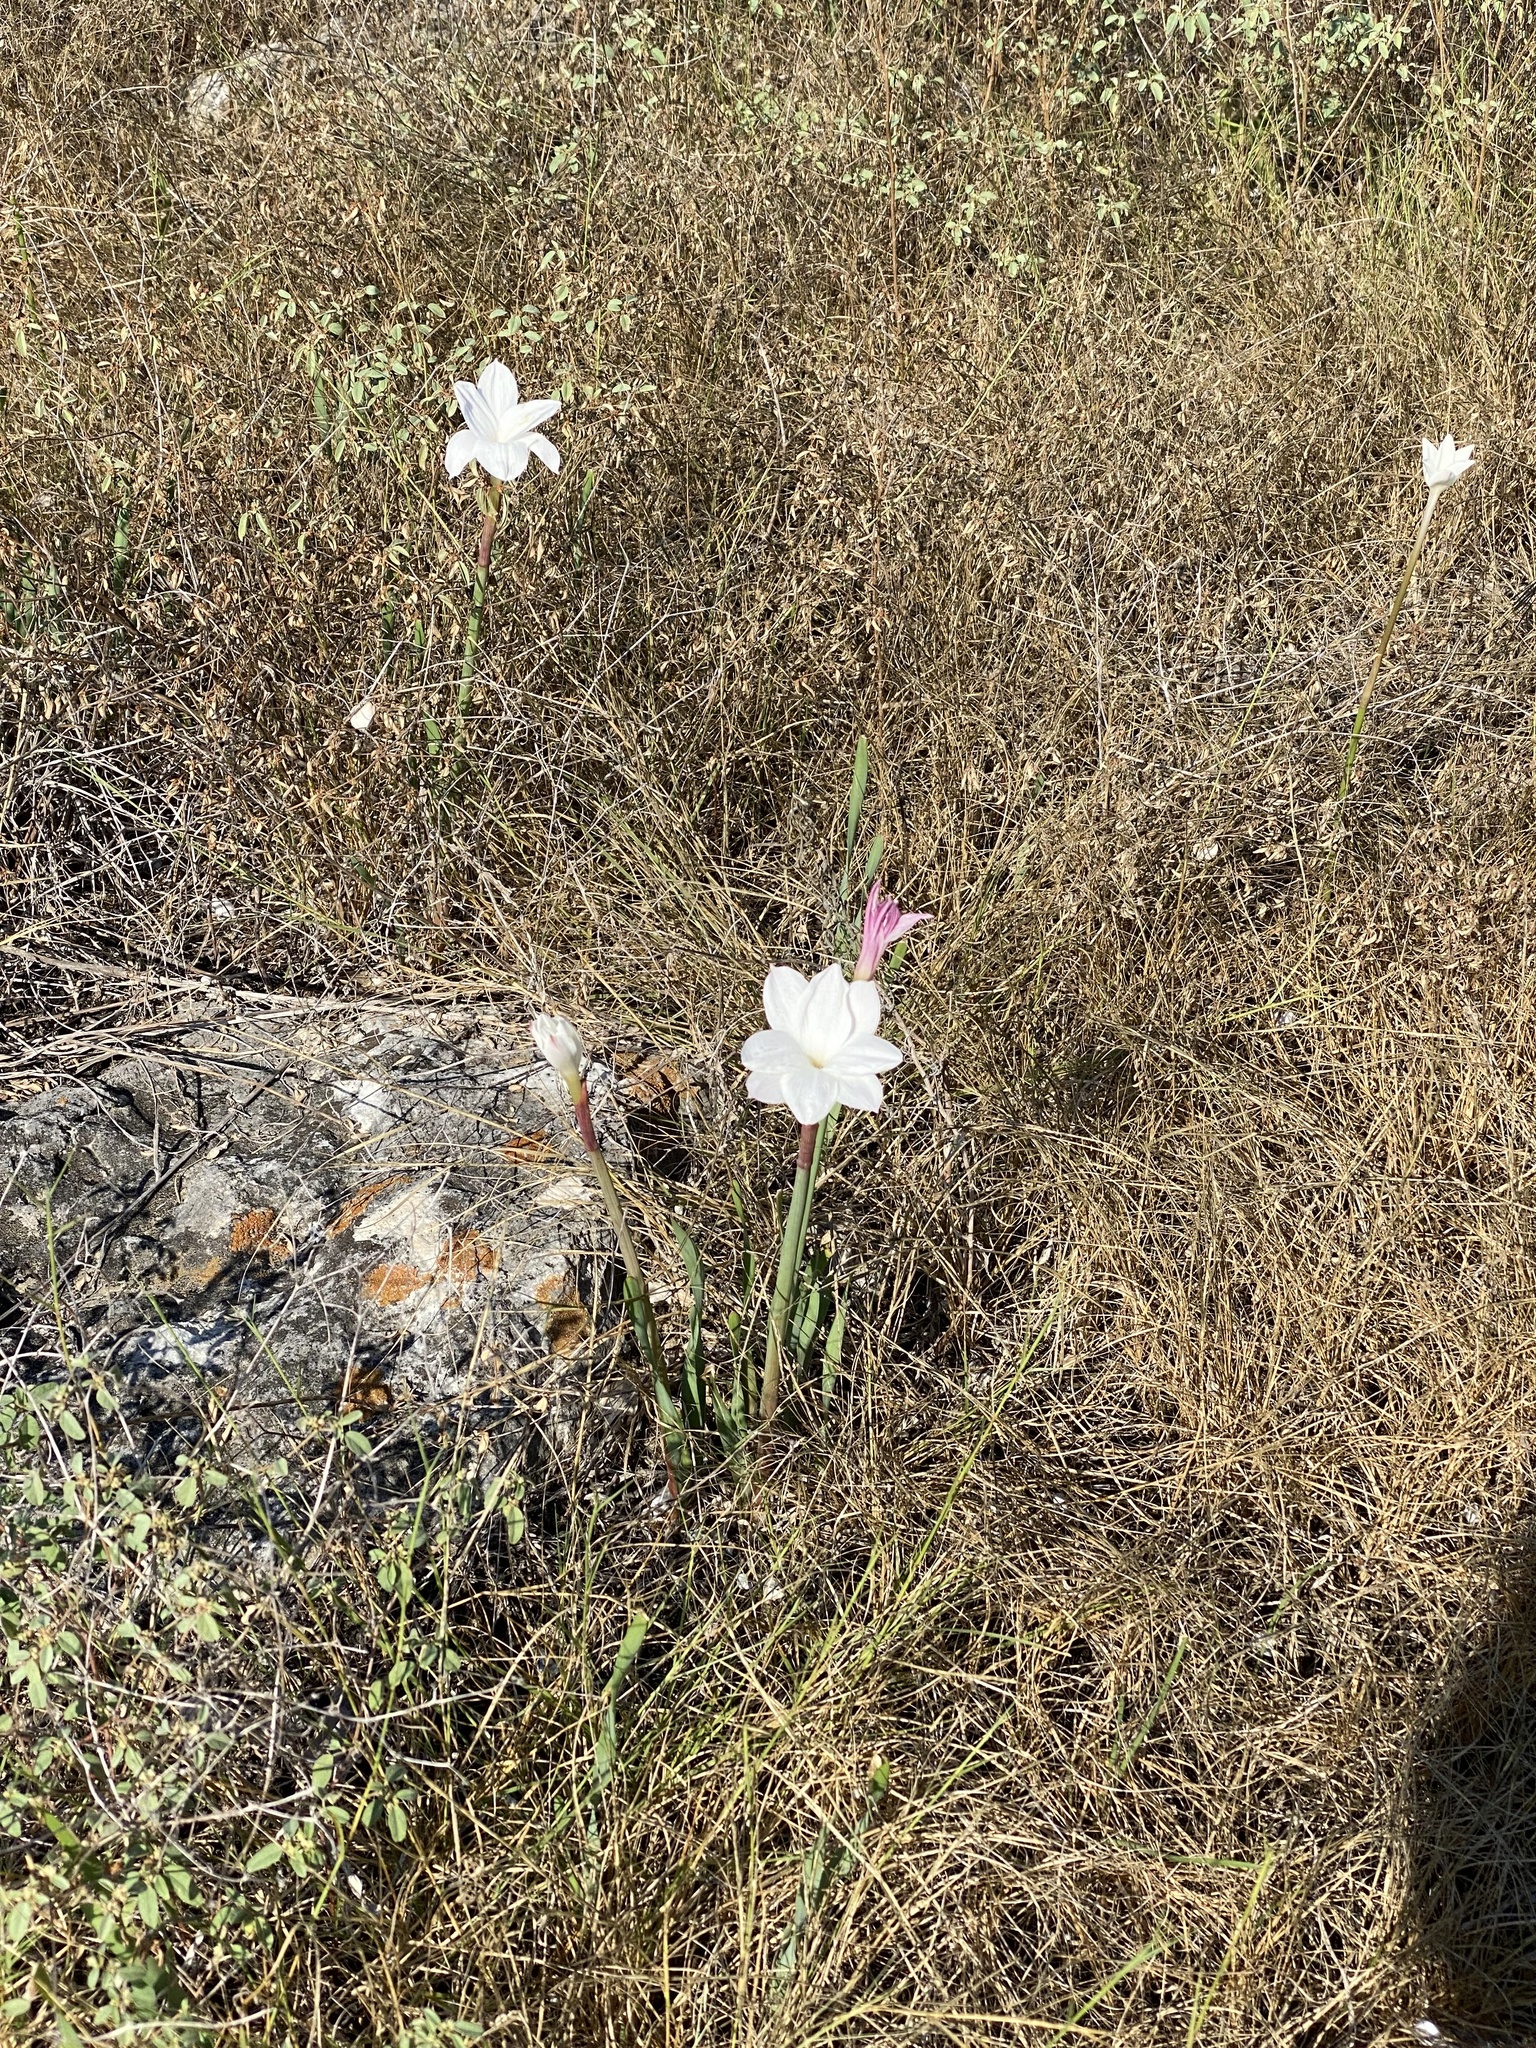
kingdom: Plantae
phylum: Tracheophyta
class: Liliopsida
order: Asparagales
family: Amaryllidaceae
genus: Zephyranthes
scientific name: Zephyranthes drummondii
